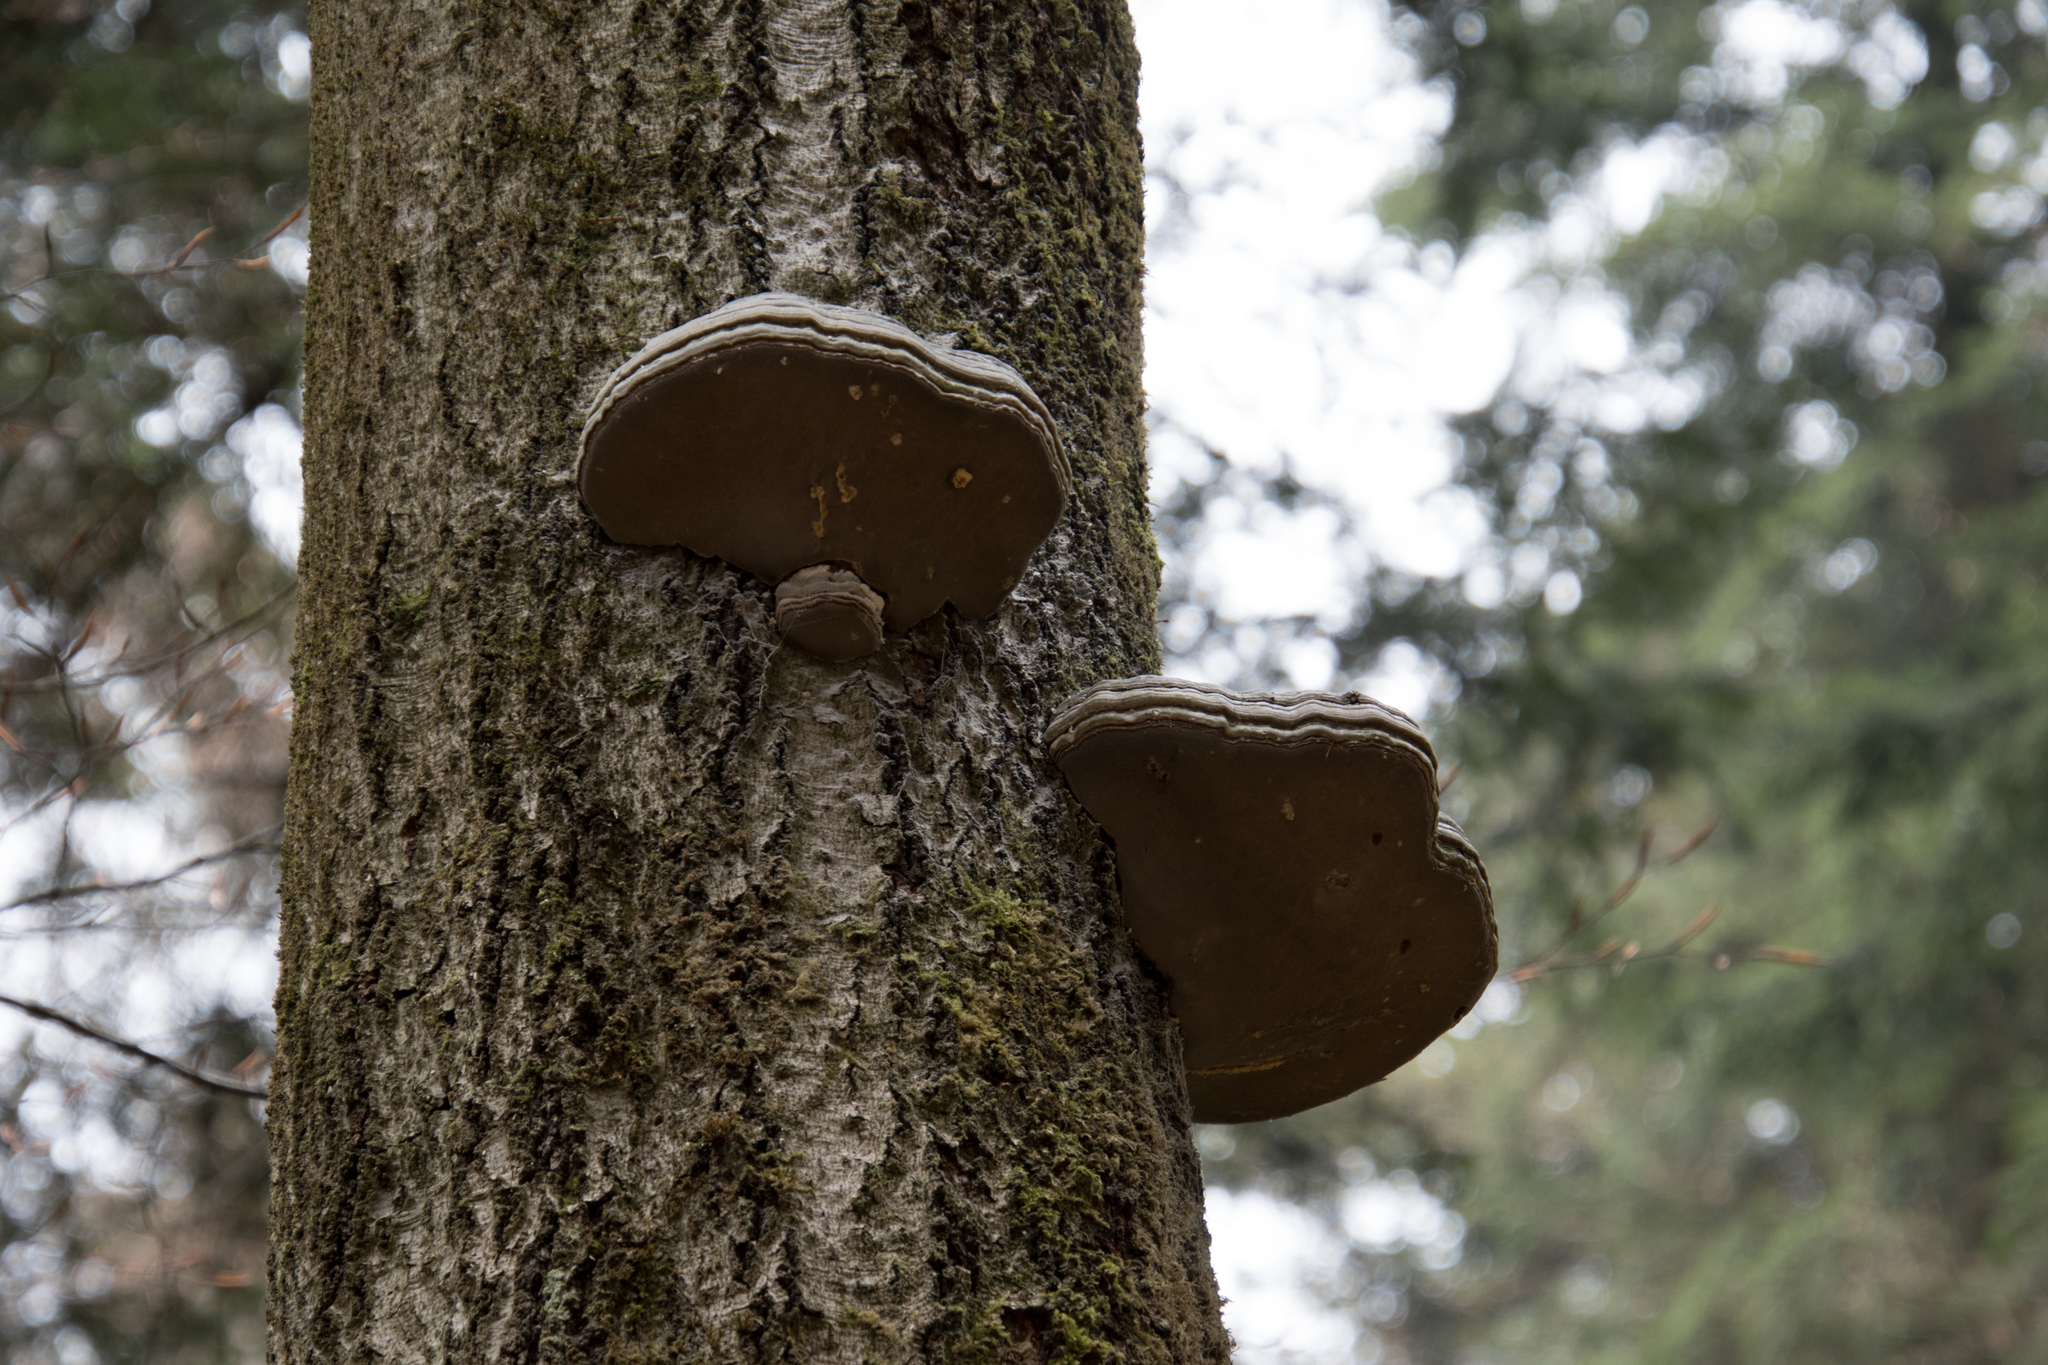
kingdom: Fungi
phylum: Basidiomycota
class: Agaricomycetes
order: Polyporales
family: Polyporaceae
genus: Fomes
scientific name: Fomes fomentarius
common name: Hoof fungus
